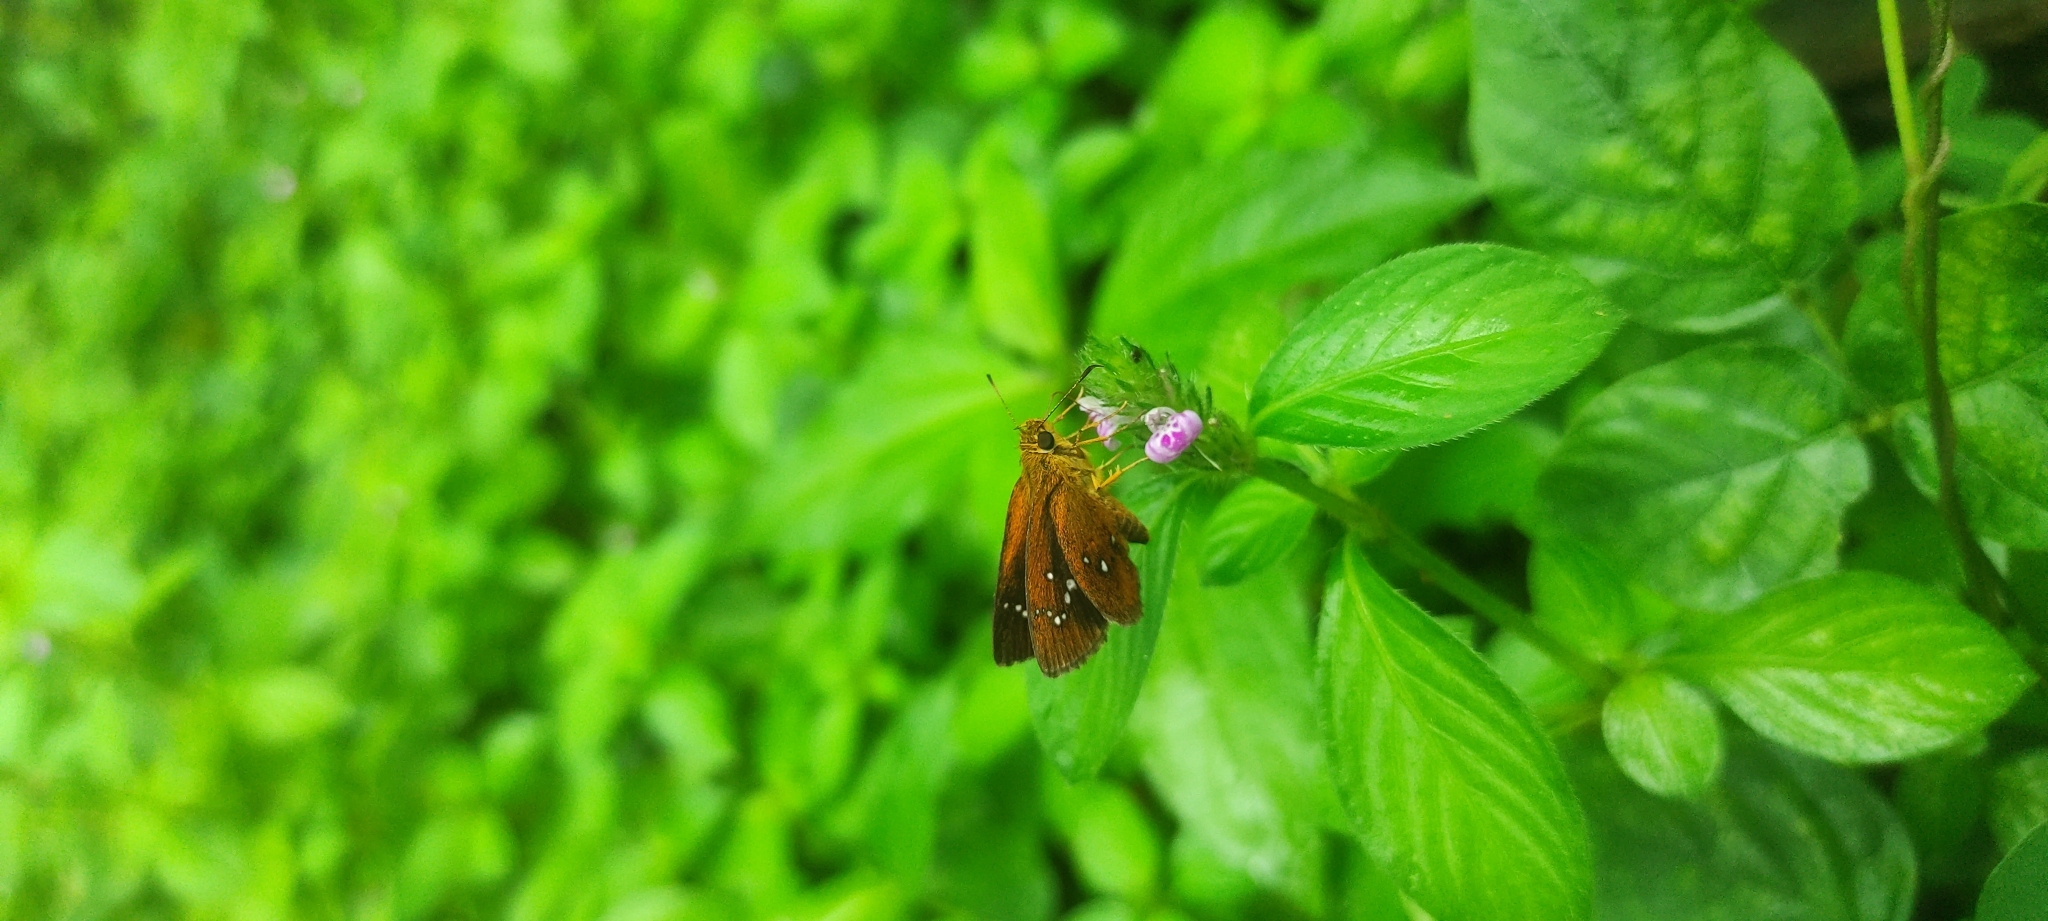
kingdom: Animalia
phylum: Arthropoda
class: Insecta
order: Lepidoptera
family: Hesperiidae
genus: Iambrix
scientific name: Iambrix salsala
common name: Chestnut bob
